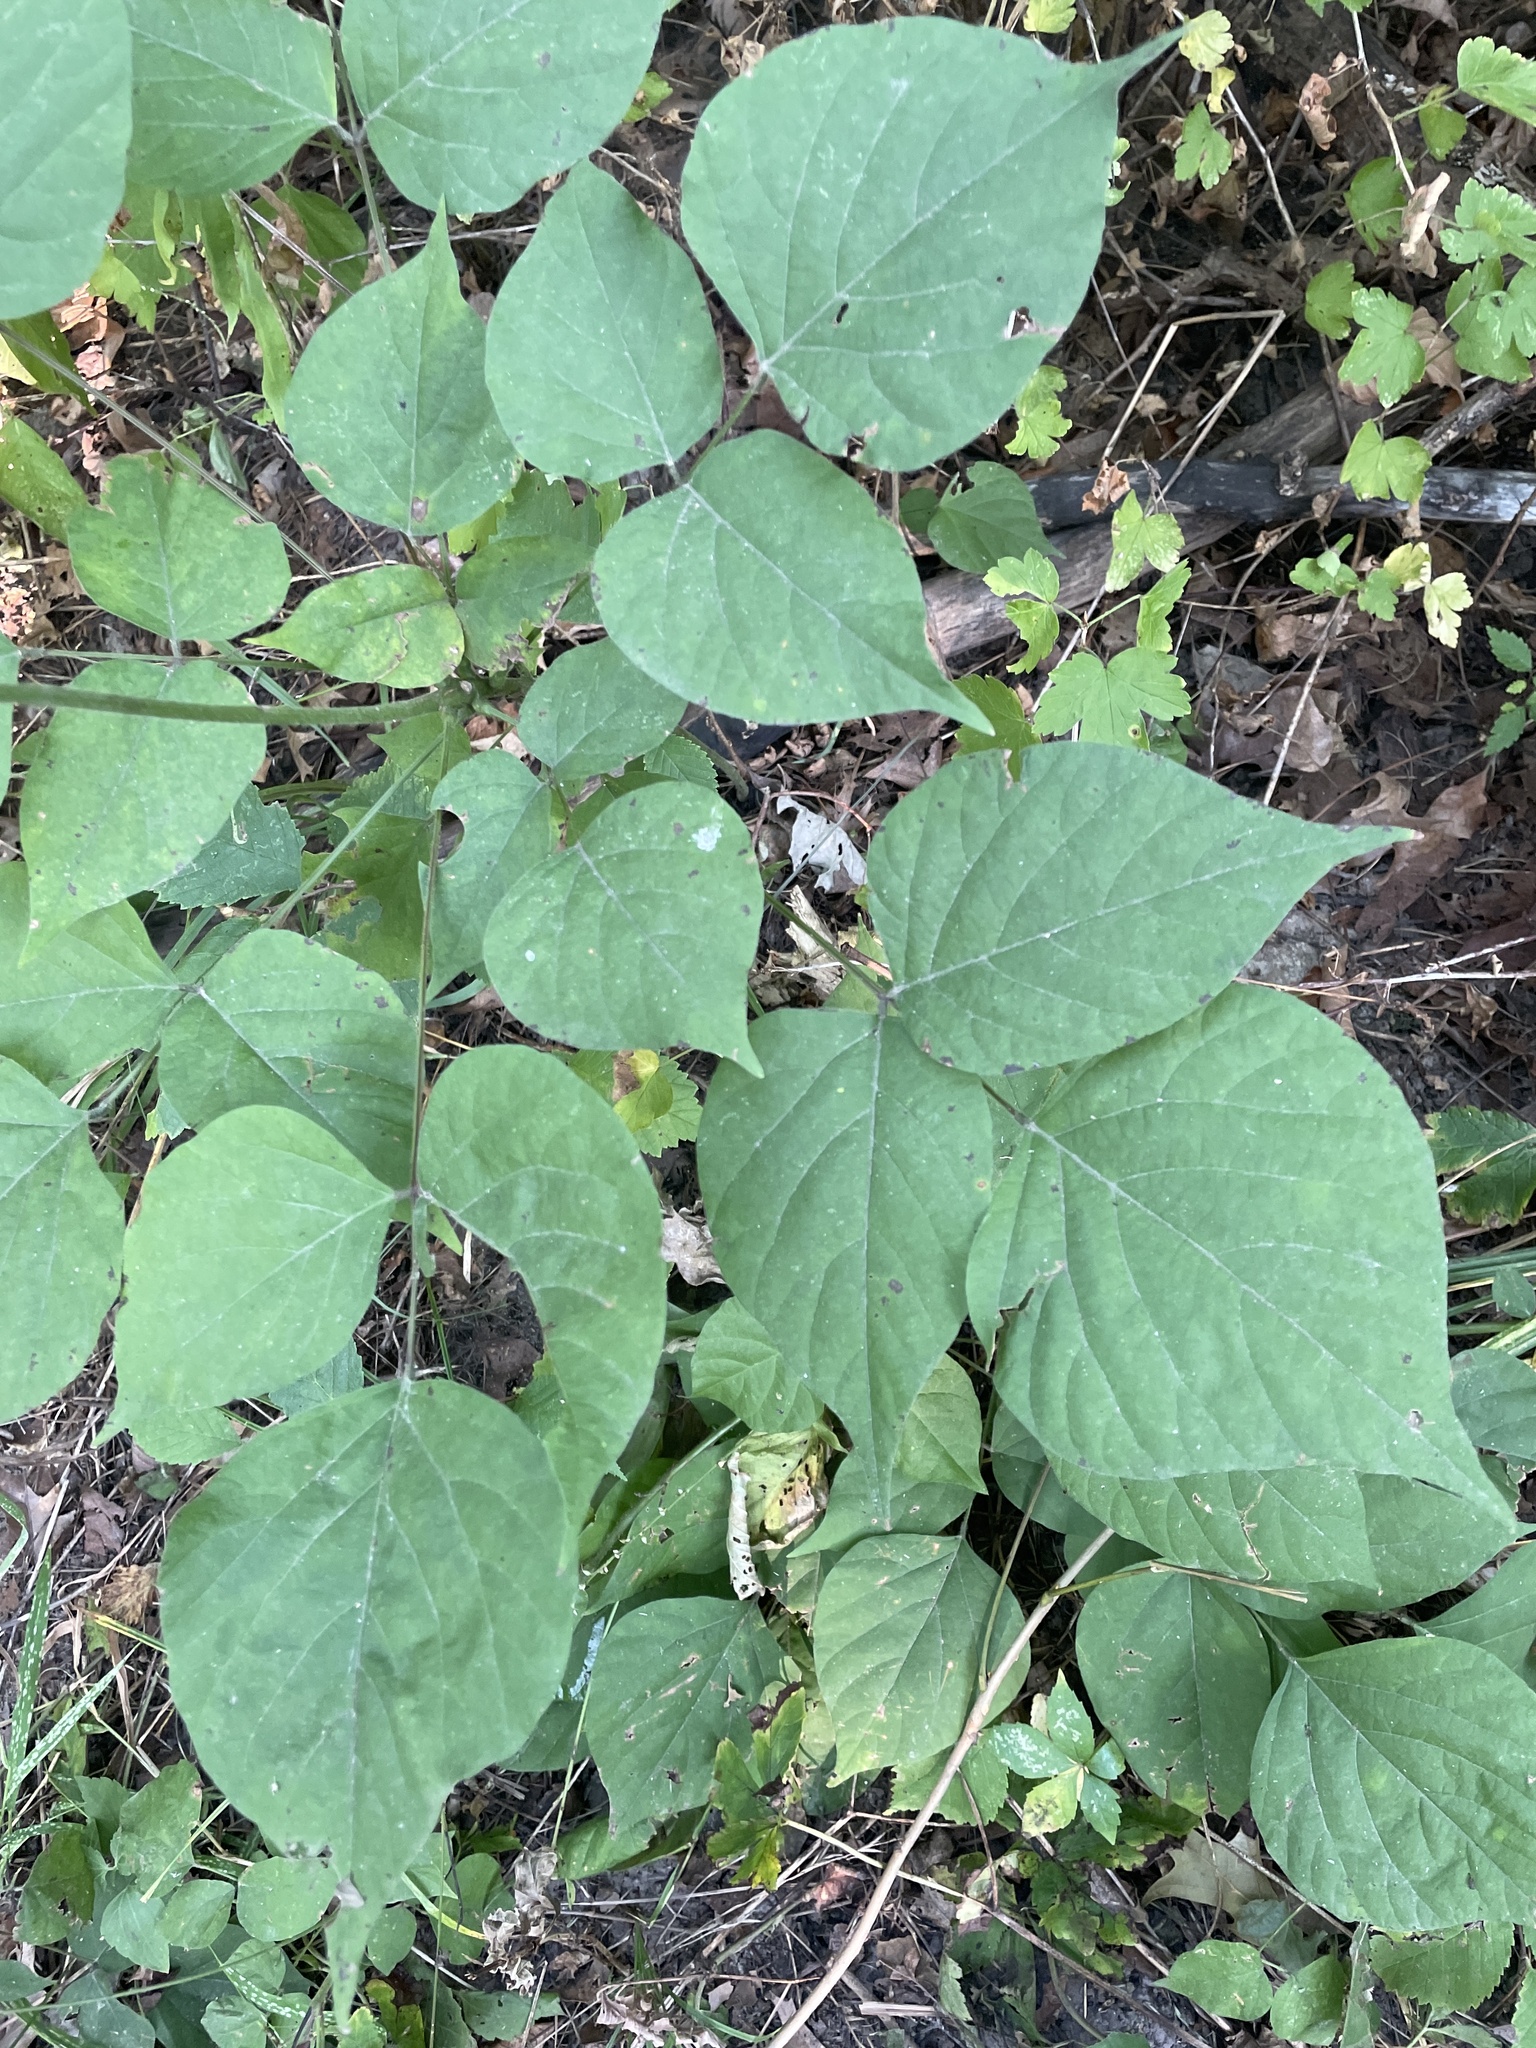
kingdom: Plantae
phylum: Tracheophyta
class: Magnoliopsida
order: Fabales
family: Fabaceae
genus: Hylodesmum
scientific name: Hylodesmum glutinosum
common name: Clustered-leaved tick-trefoil
